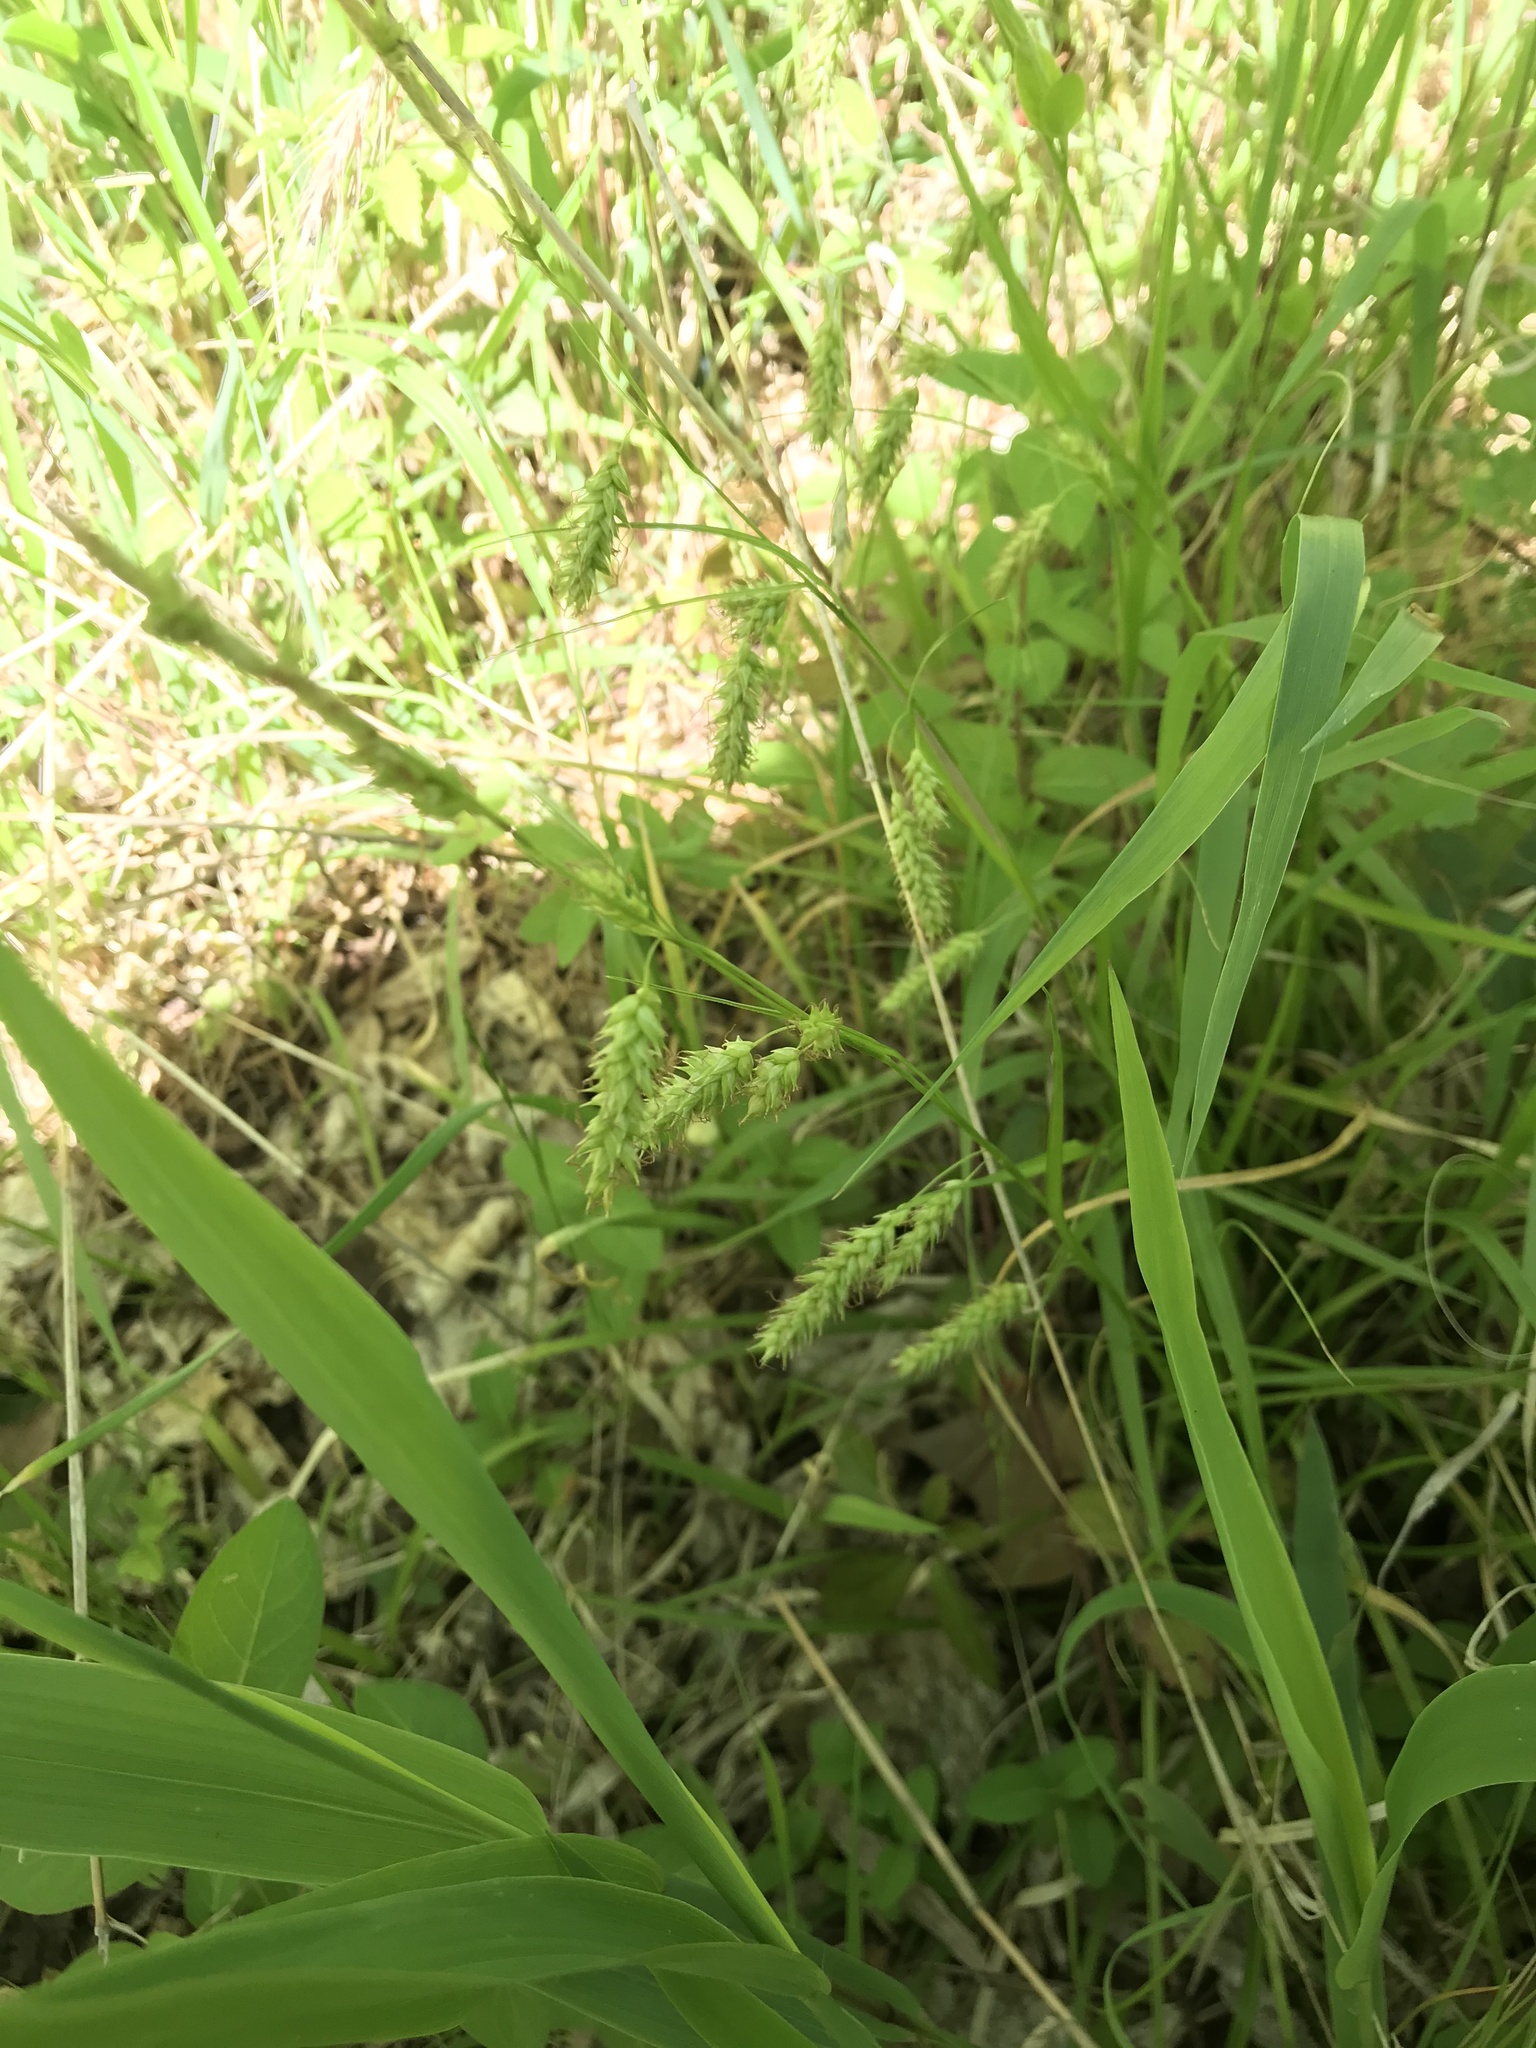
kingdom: Plantae
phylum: Tracheophyta
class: Liliopsida
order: Poales
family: Cyperaceae
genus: Carex
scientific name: Carex cherokeensis
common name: Cherokee sedge
